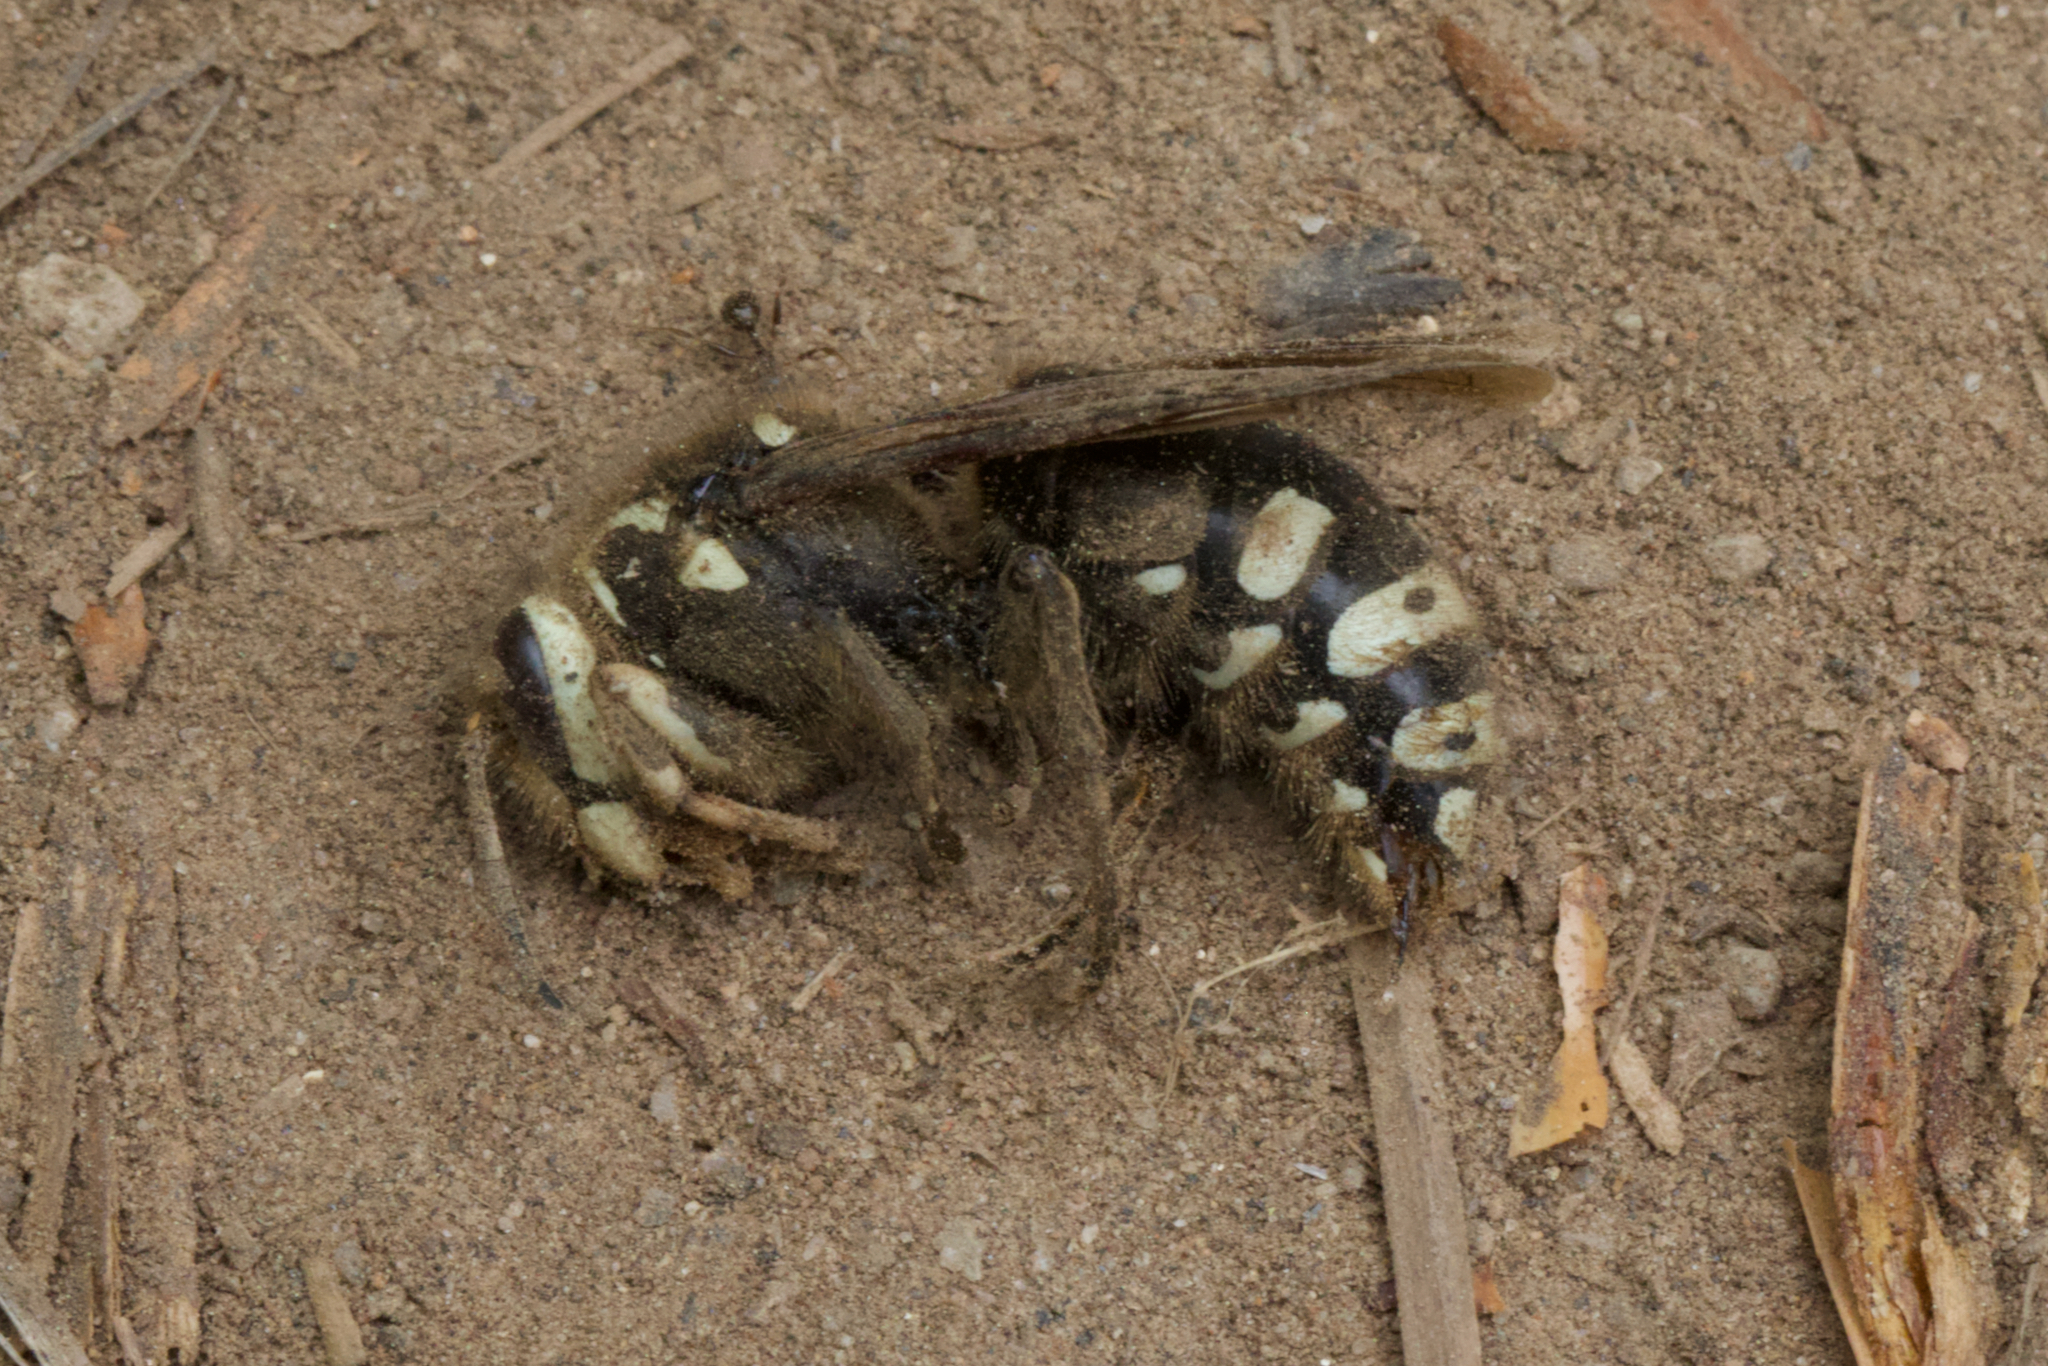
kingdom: Animalia
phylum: Arthropoda
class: Insecta
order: Hymenoptera
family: Vespidae
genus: Dolichovespula
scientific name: Dolichovespula maculata
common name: Bald-faced hornet
